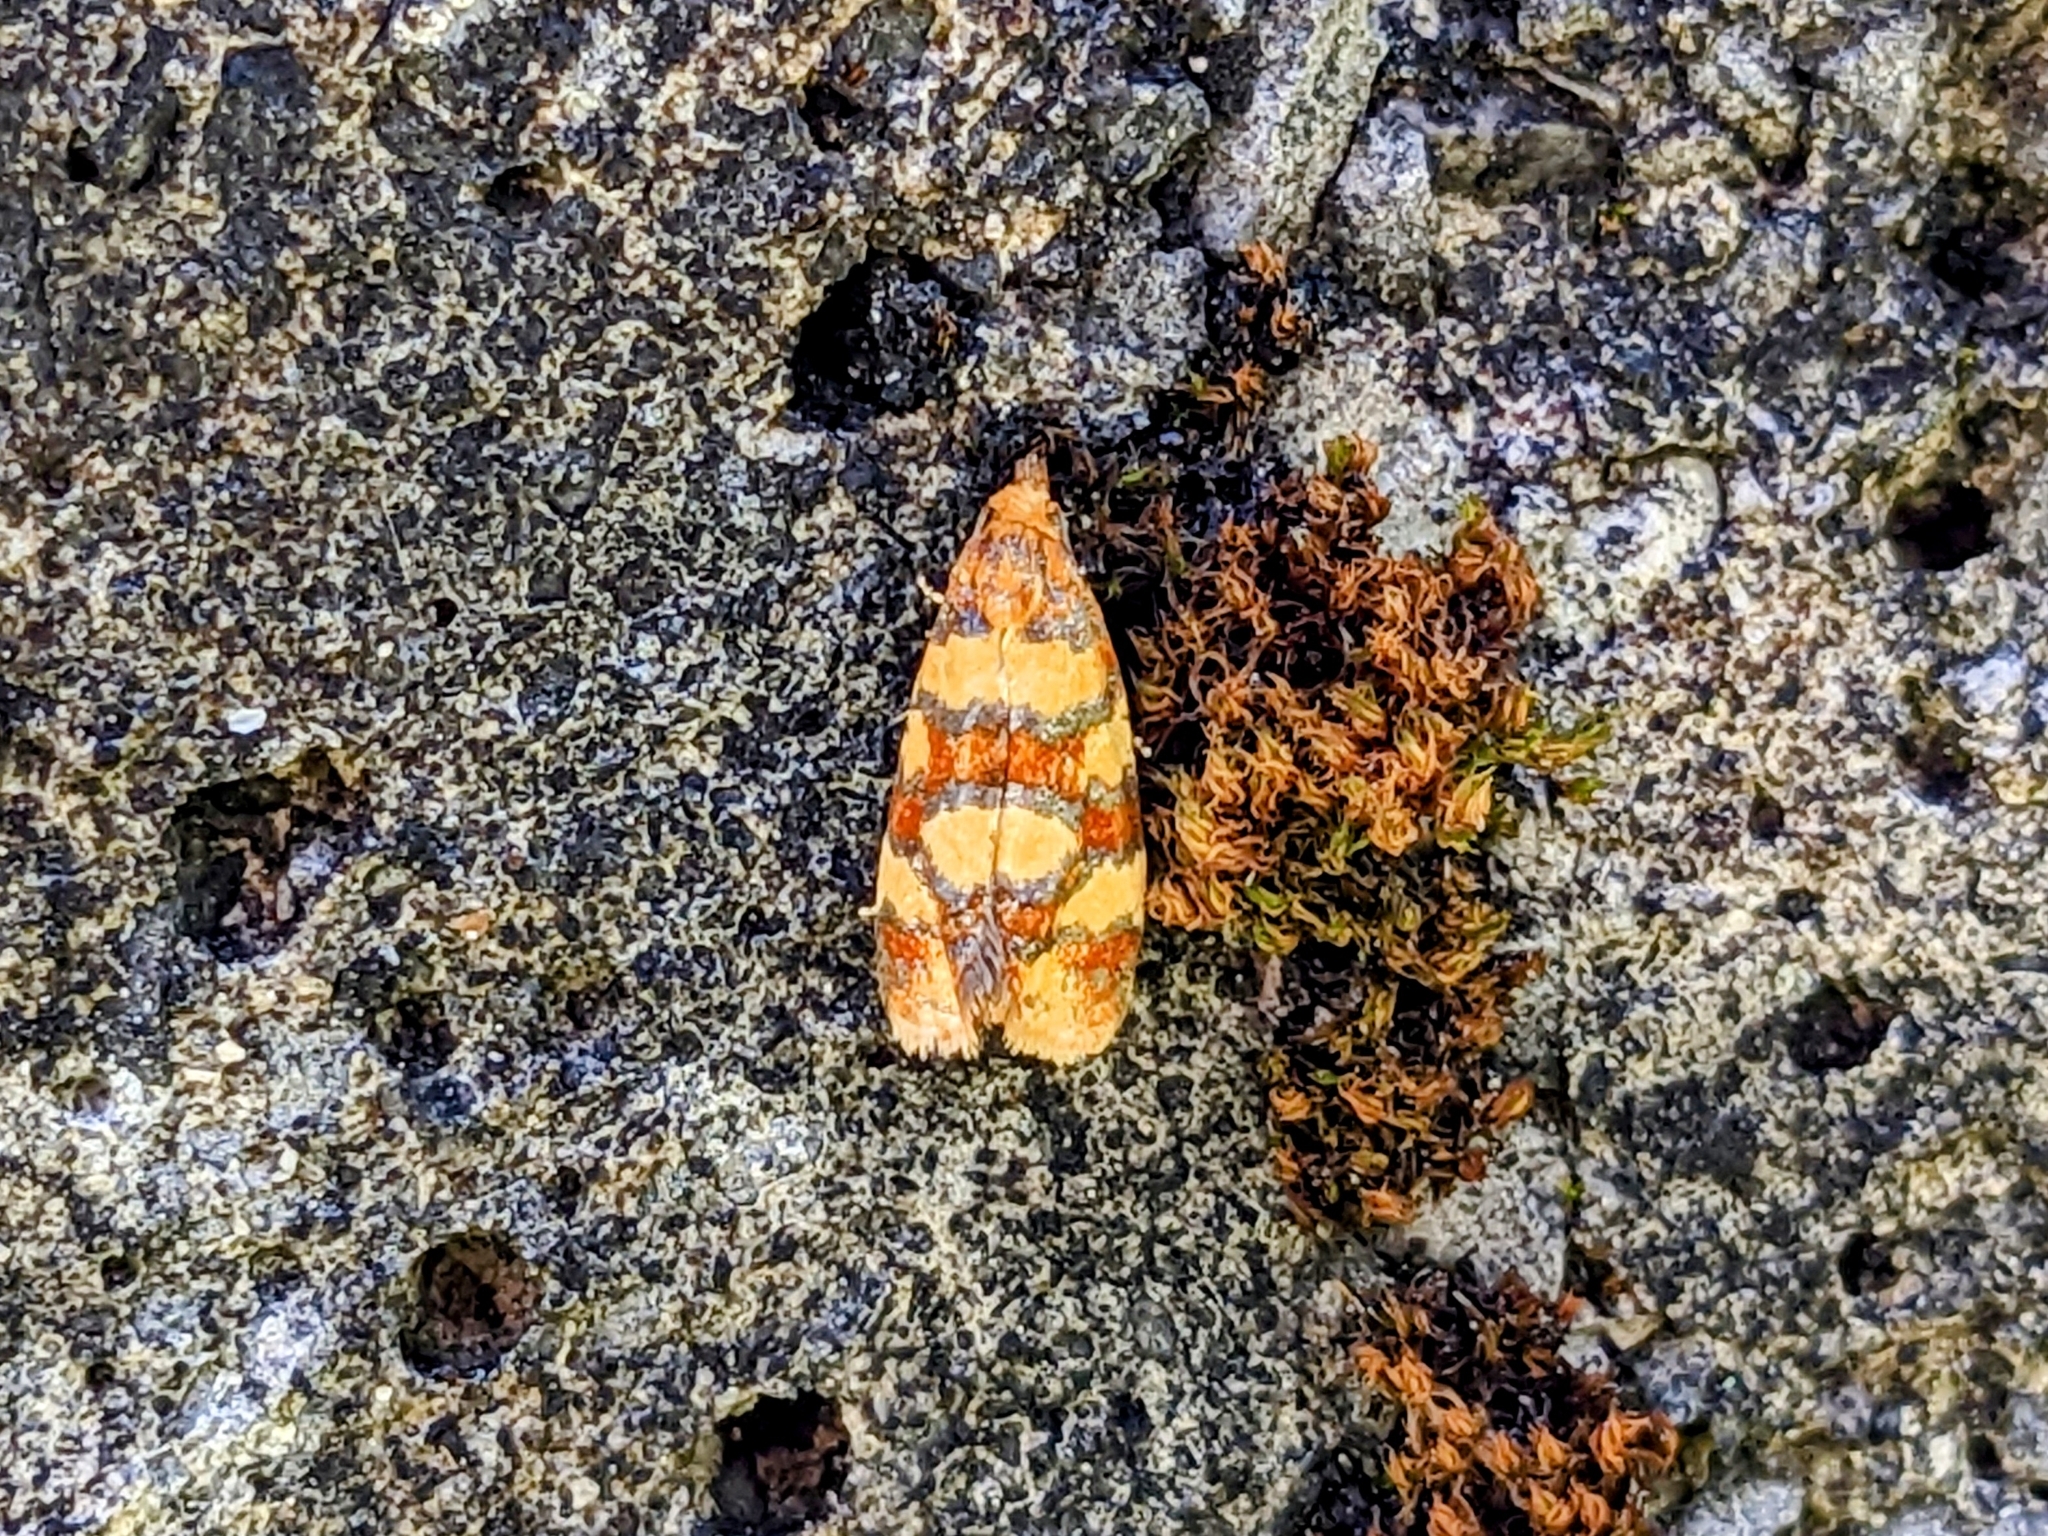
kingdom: Animalia
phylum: Arthropoda
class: Insecta
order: Lepidoptera
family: Tortricidae
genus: Aethes
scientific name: Aethes tesserana
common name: Downland conch
